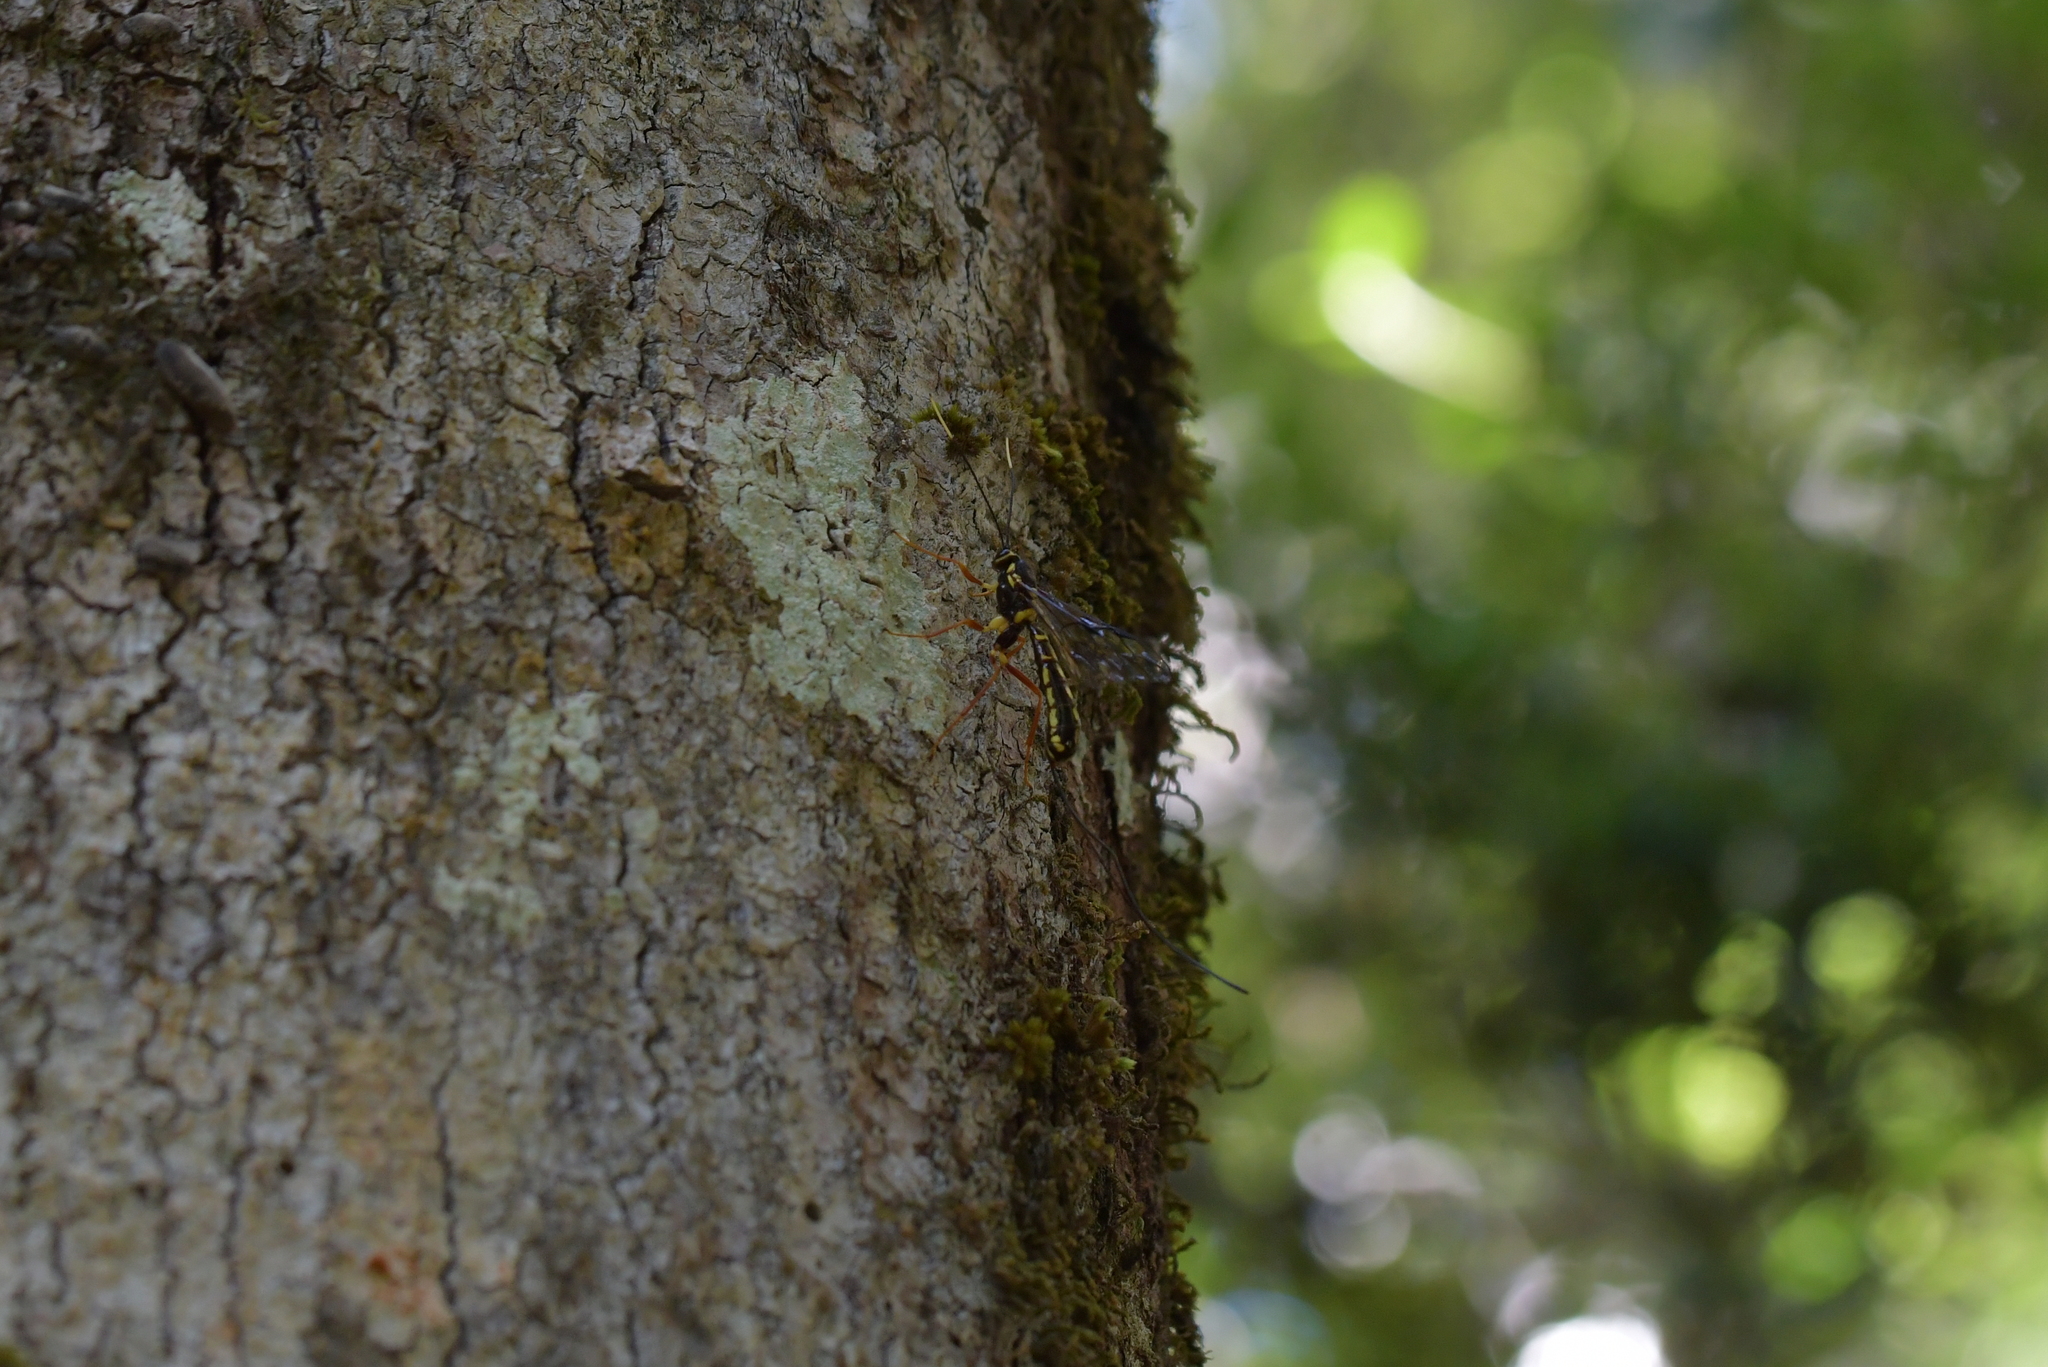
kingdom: Animalia
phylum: Arthropoda
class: Insecta
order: Hymenoptera
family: Ichneumonidae
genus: Megarhyssa
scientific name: Megarhyssa nortoni
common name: Norton's giant ichneumonid wasp
